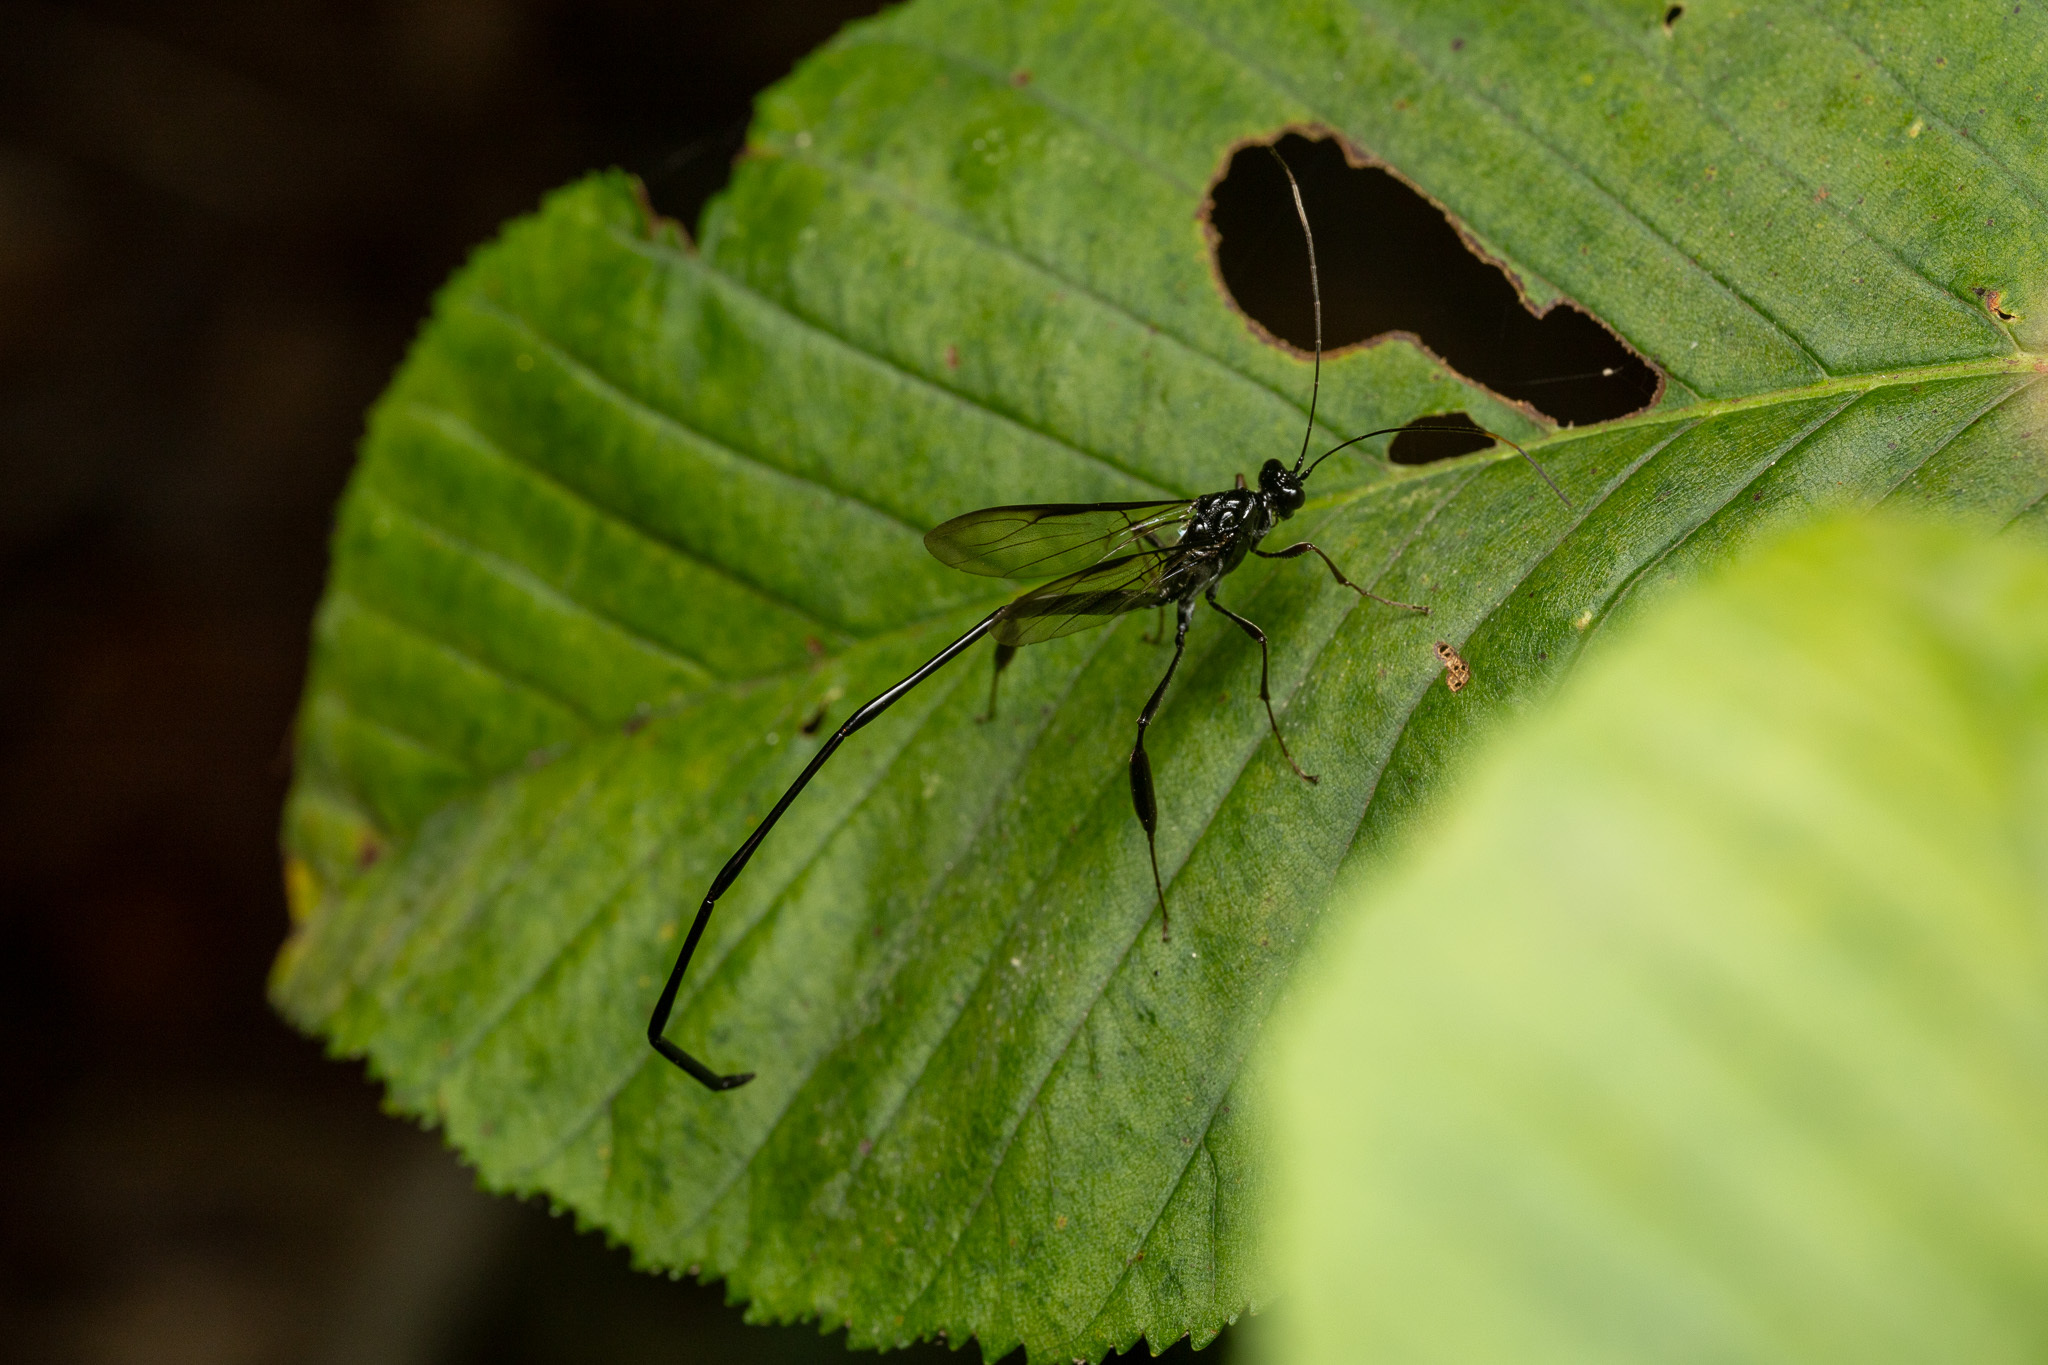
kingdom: Animalia
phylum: Arthropoda
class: Insecta
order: Hymenoptera
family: Pelecinidae
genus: Pelecinus
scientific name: Pelecinus polyturator
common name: American pelecinid wasp
